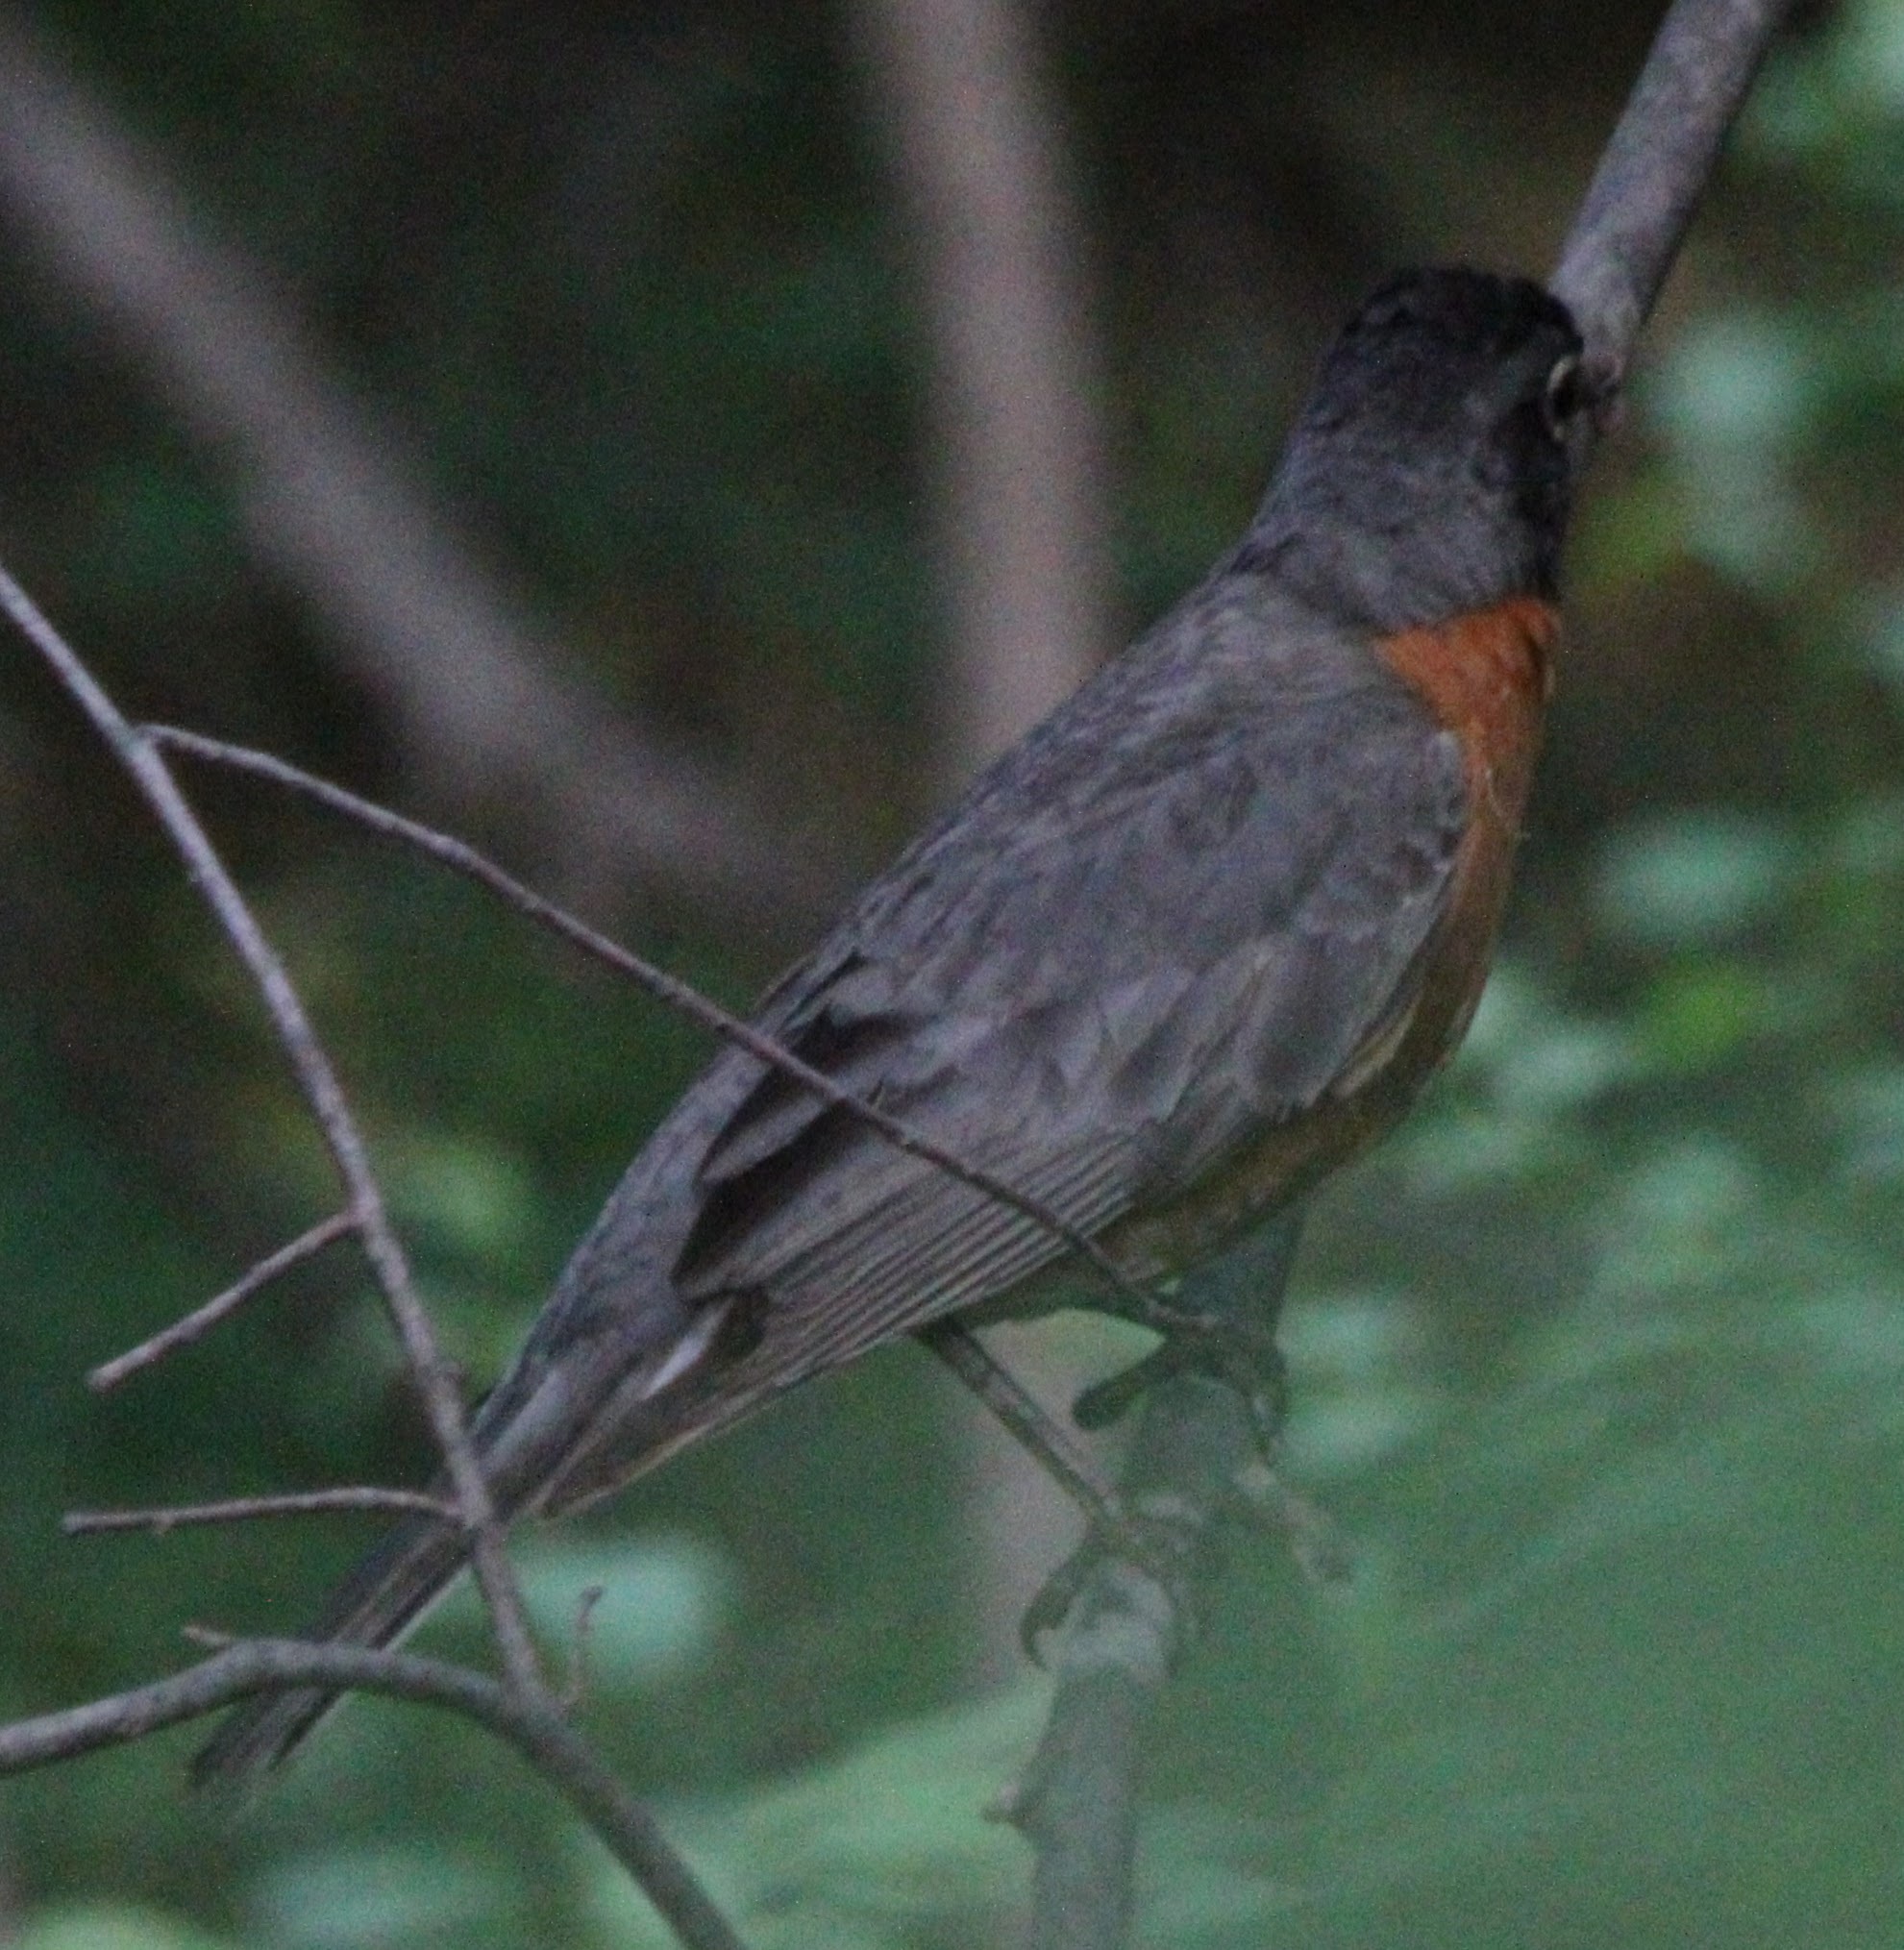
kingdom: Animalia
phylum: Chordata
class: Aves
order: Passeriformes
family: Turdidae
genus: Turdus
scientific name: Turdus migratorius
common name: American robin
